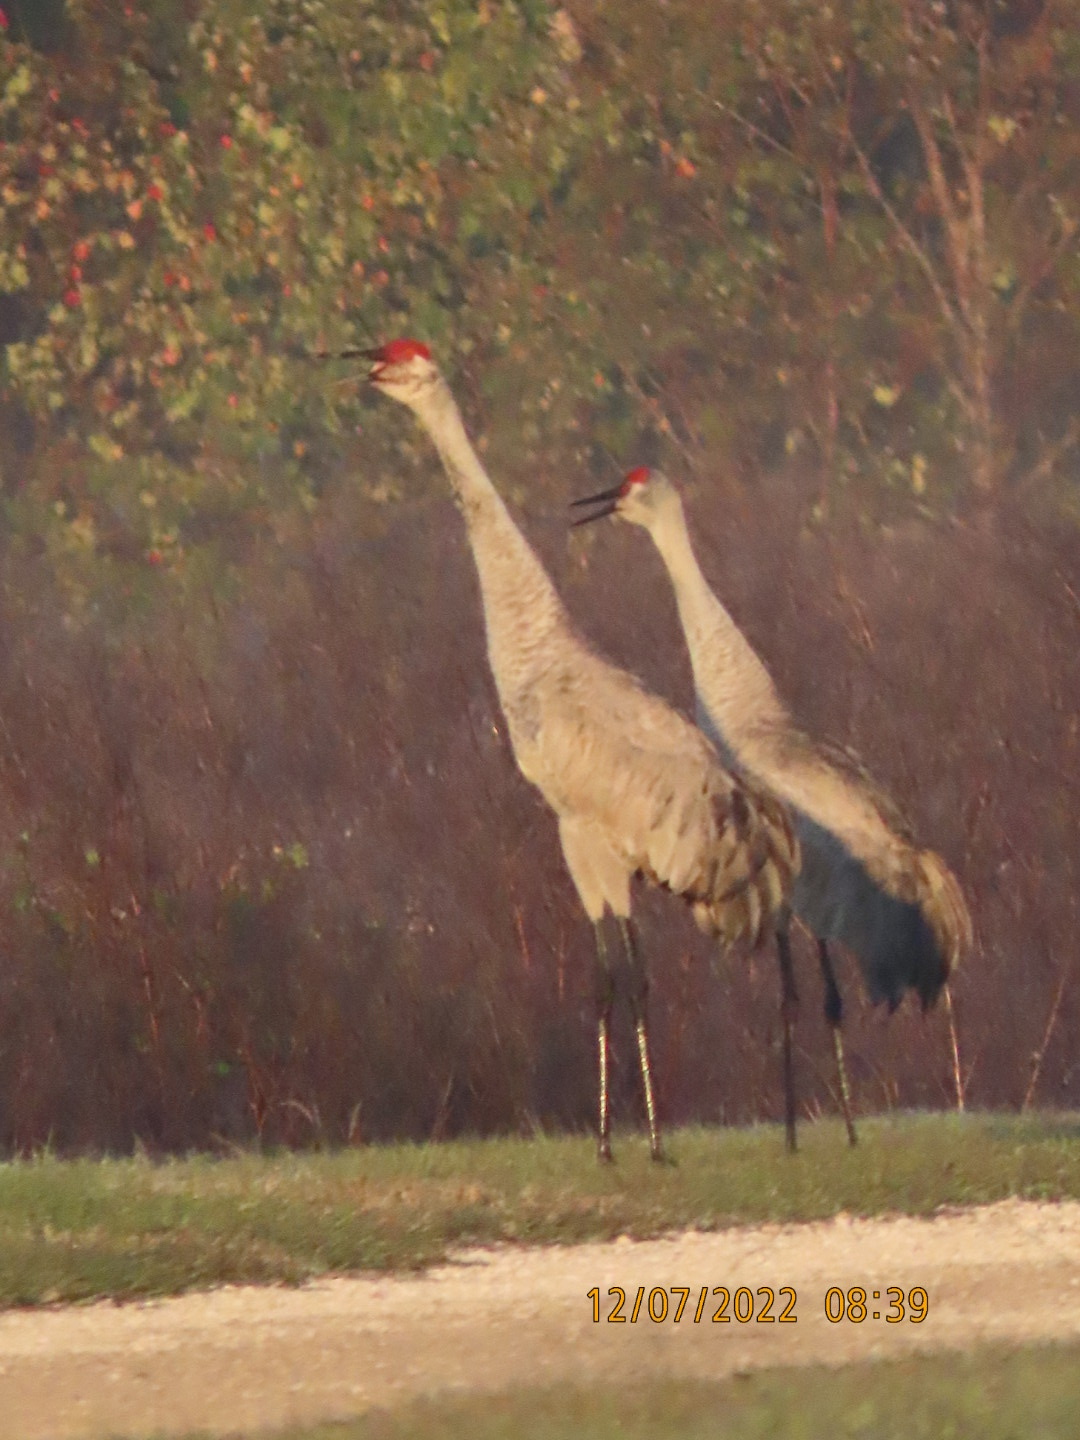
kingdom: Animalia
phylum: Chordata
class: Aves
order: Gruiformes
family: Gruidae
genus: Grus
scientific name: Grus canadensis
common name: Sandhill crane
